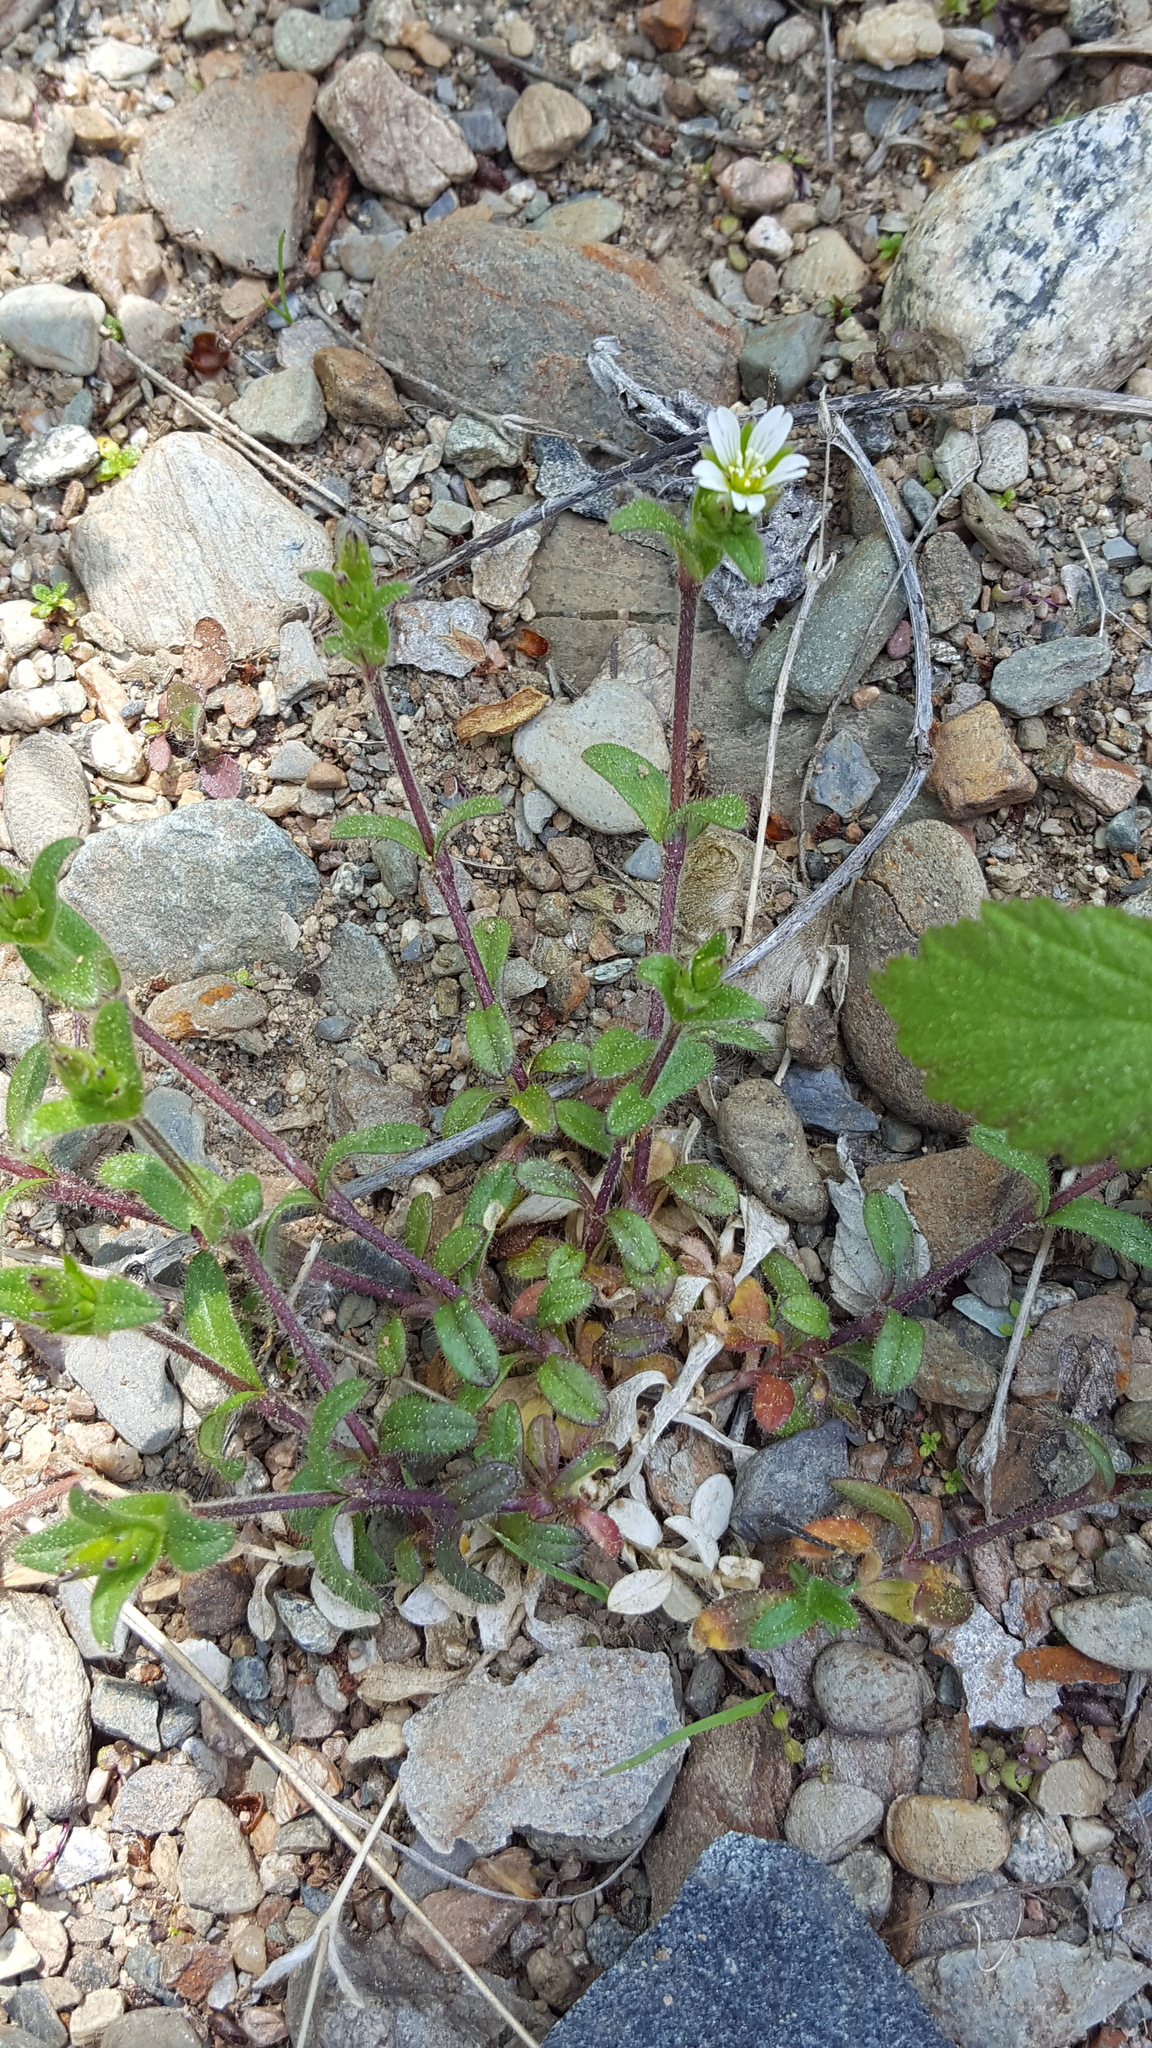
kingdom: Plantae
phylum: Tracheophyta
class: Magnoliopsida
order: Caryophyllales
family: Caryophyllaceae
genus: Cerastium
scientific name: Cerastium fontanum
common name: Common mouse-ear
